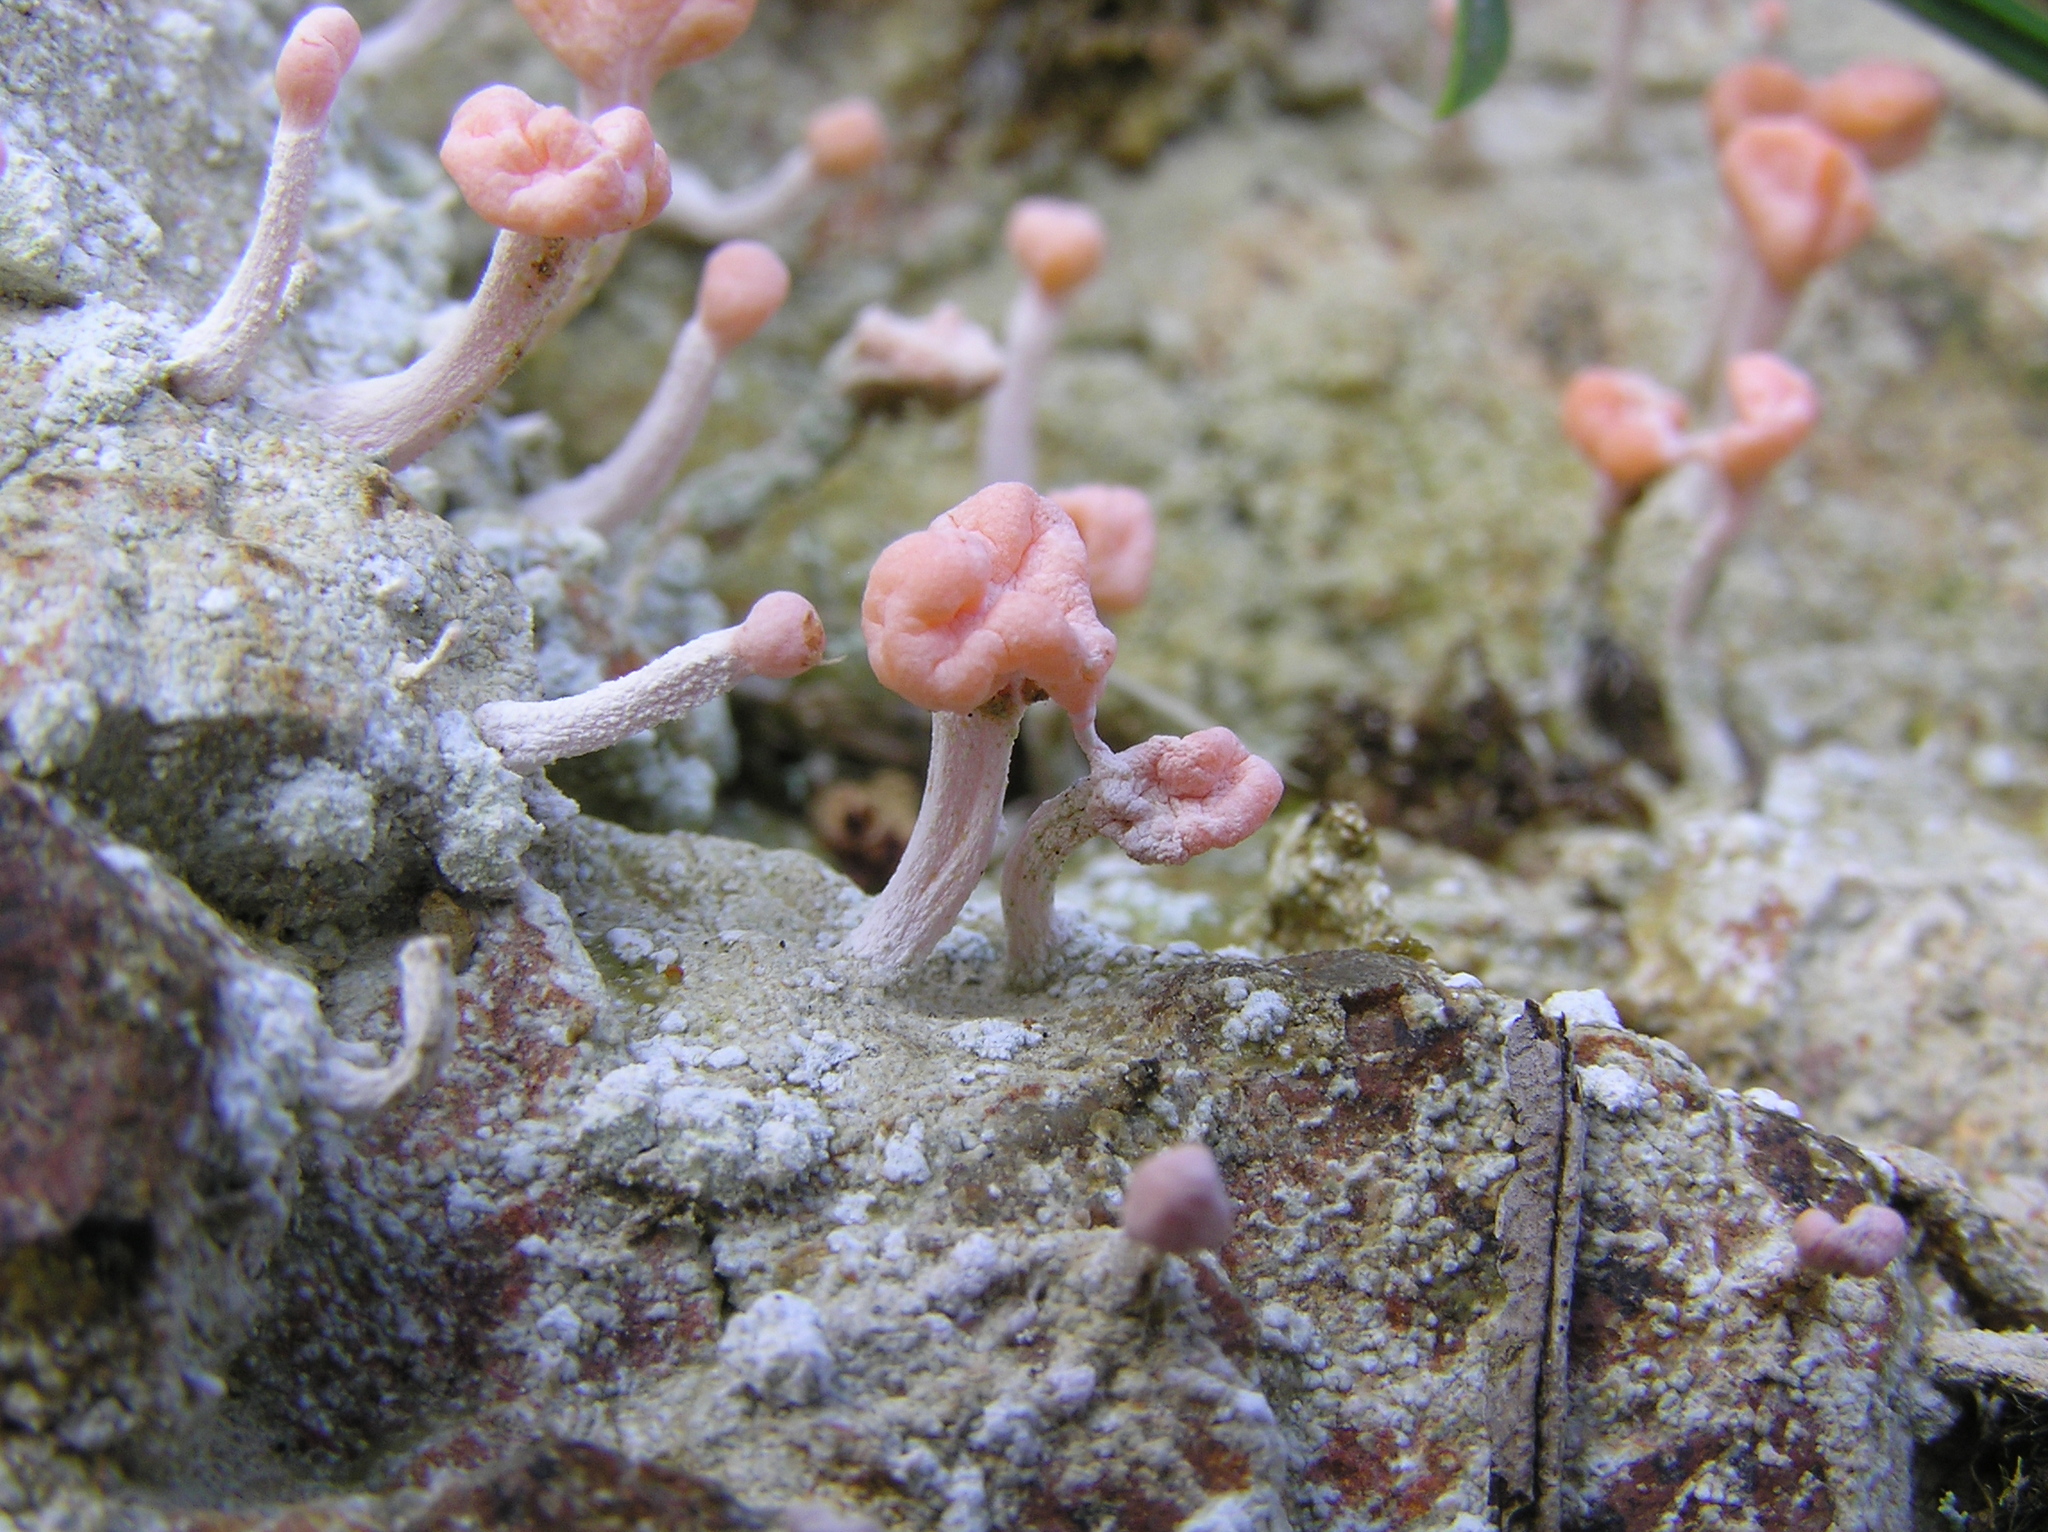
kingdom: Fungi
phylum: Ascomycota
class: Lecanoromycetes
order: Pertusariales
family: Icmadophilaceae
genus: Dibaeis
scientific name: Dibaeis arcuata
